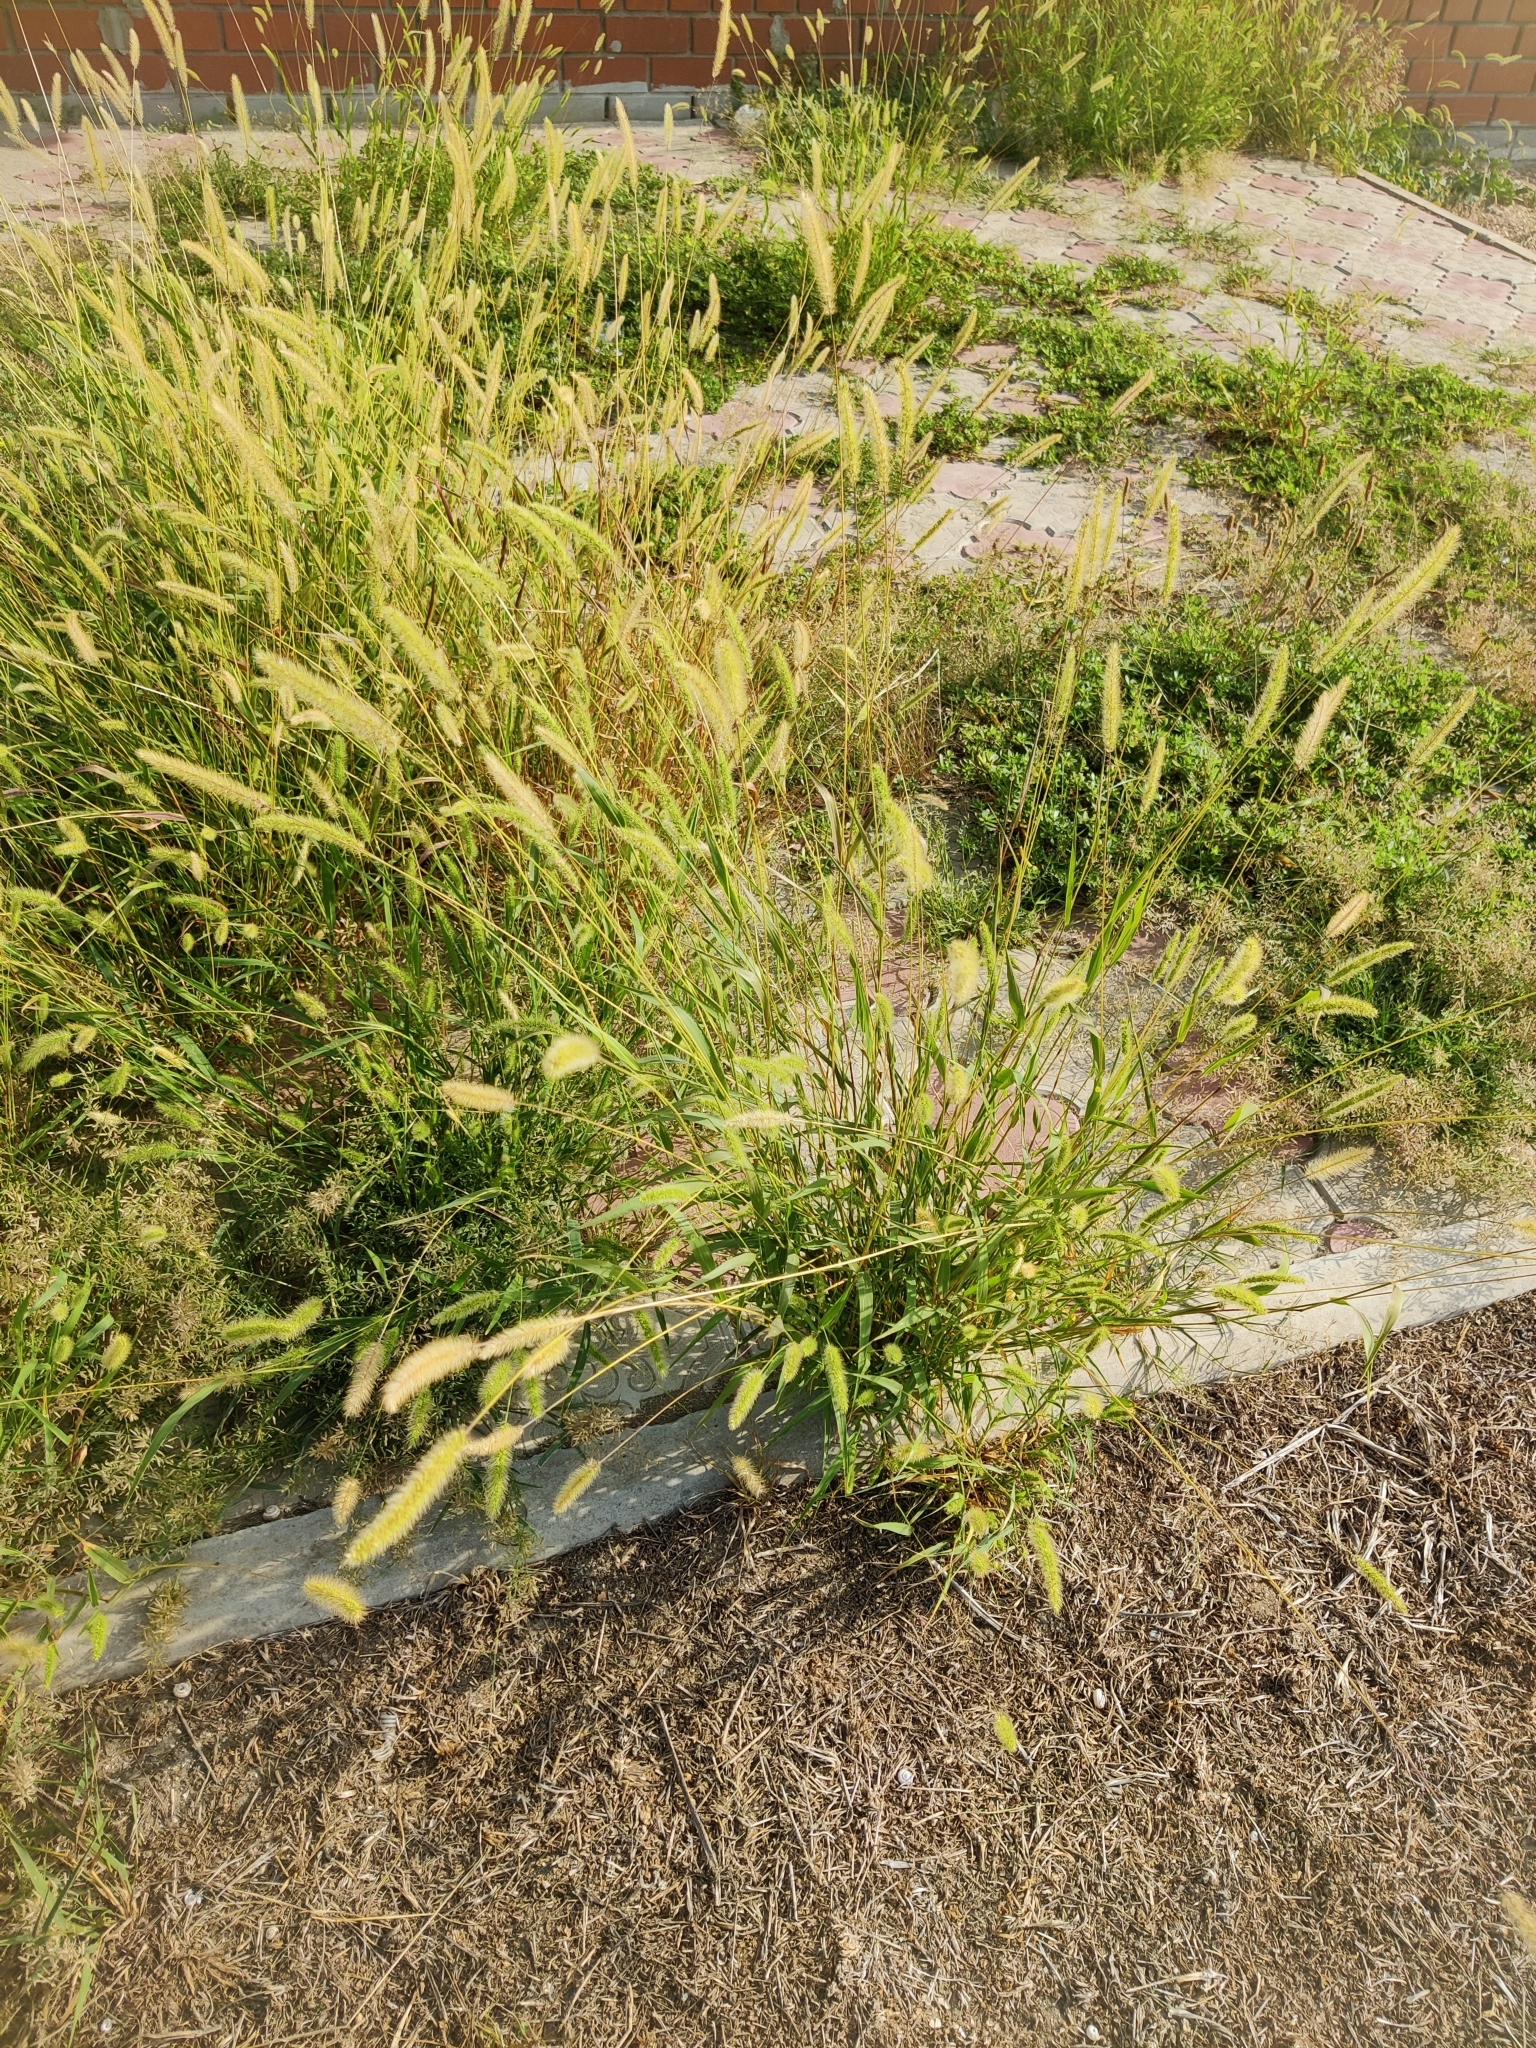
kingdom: Plantae
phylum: Tracheophyta
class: Liliopsida
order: Poales
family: Poaceae
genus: Setaria
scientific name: Setaria viridis
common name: Green bristlegrass
